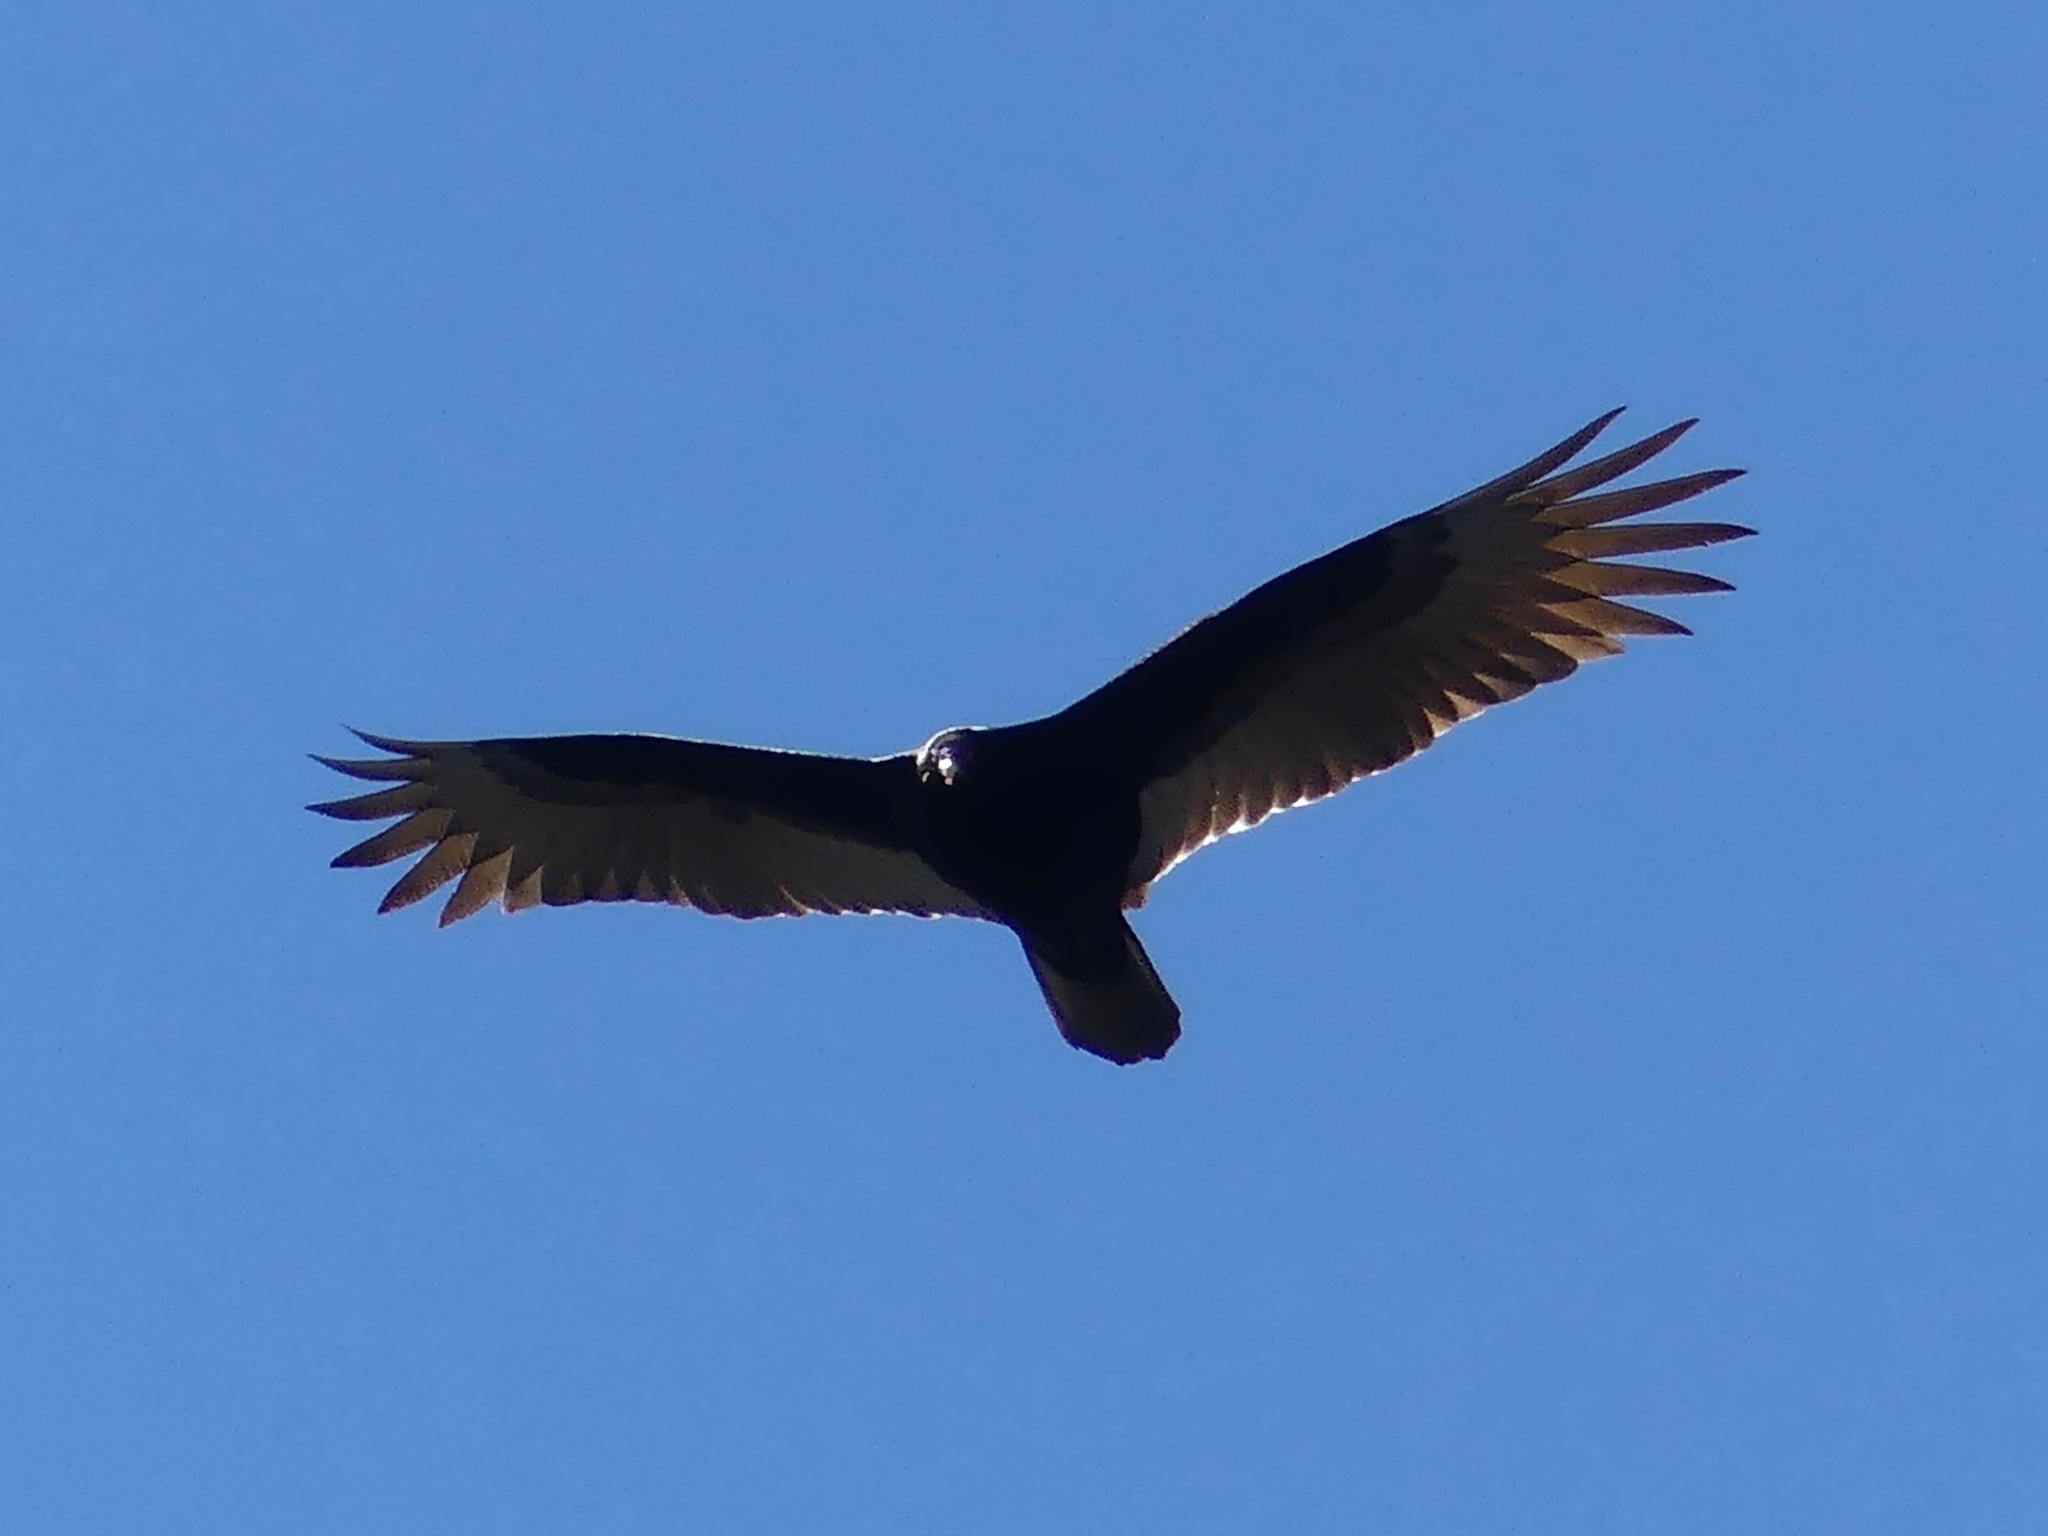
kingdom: Animalia
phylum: Chordata
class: Aves
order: Accipitriformes
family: Cathartidae
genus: Cathartes
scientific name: Cathartes aura
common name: Turkey vulture
